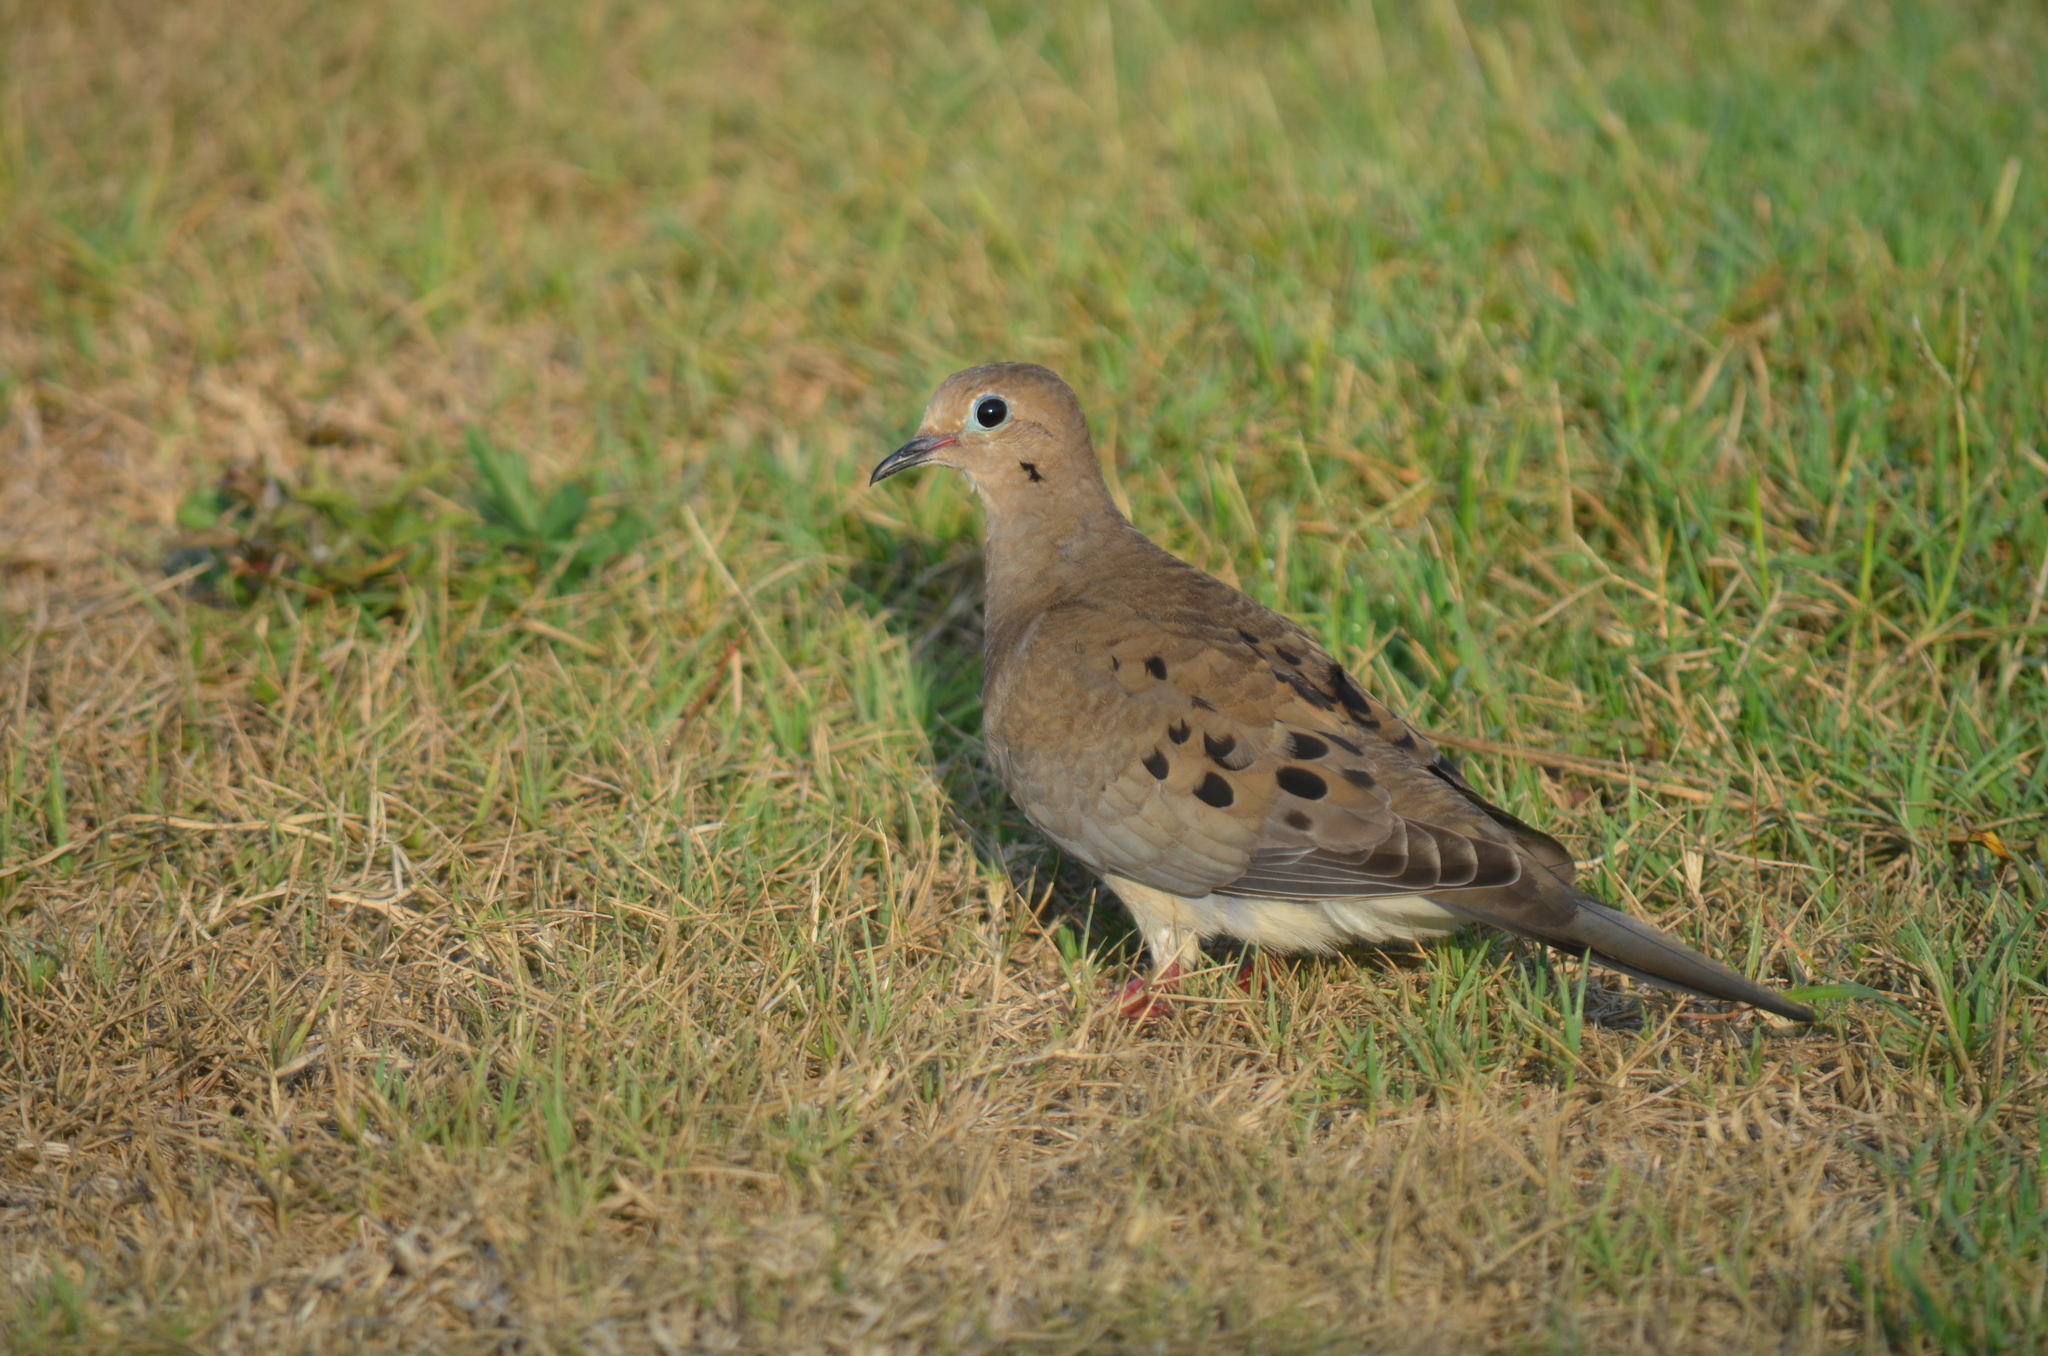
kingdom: Animalia
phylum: Chordata
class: Aves
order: Columbiformes
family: Columbidae
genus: Zenaida
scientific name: Zenaida macroura
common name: Mourning dove
